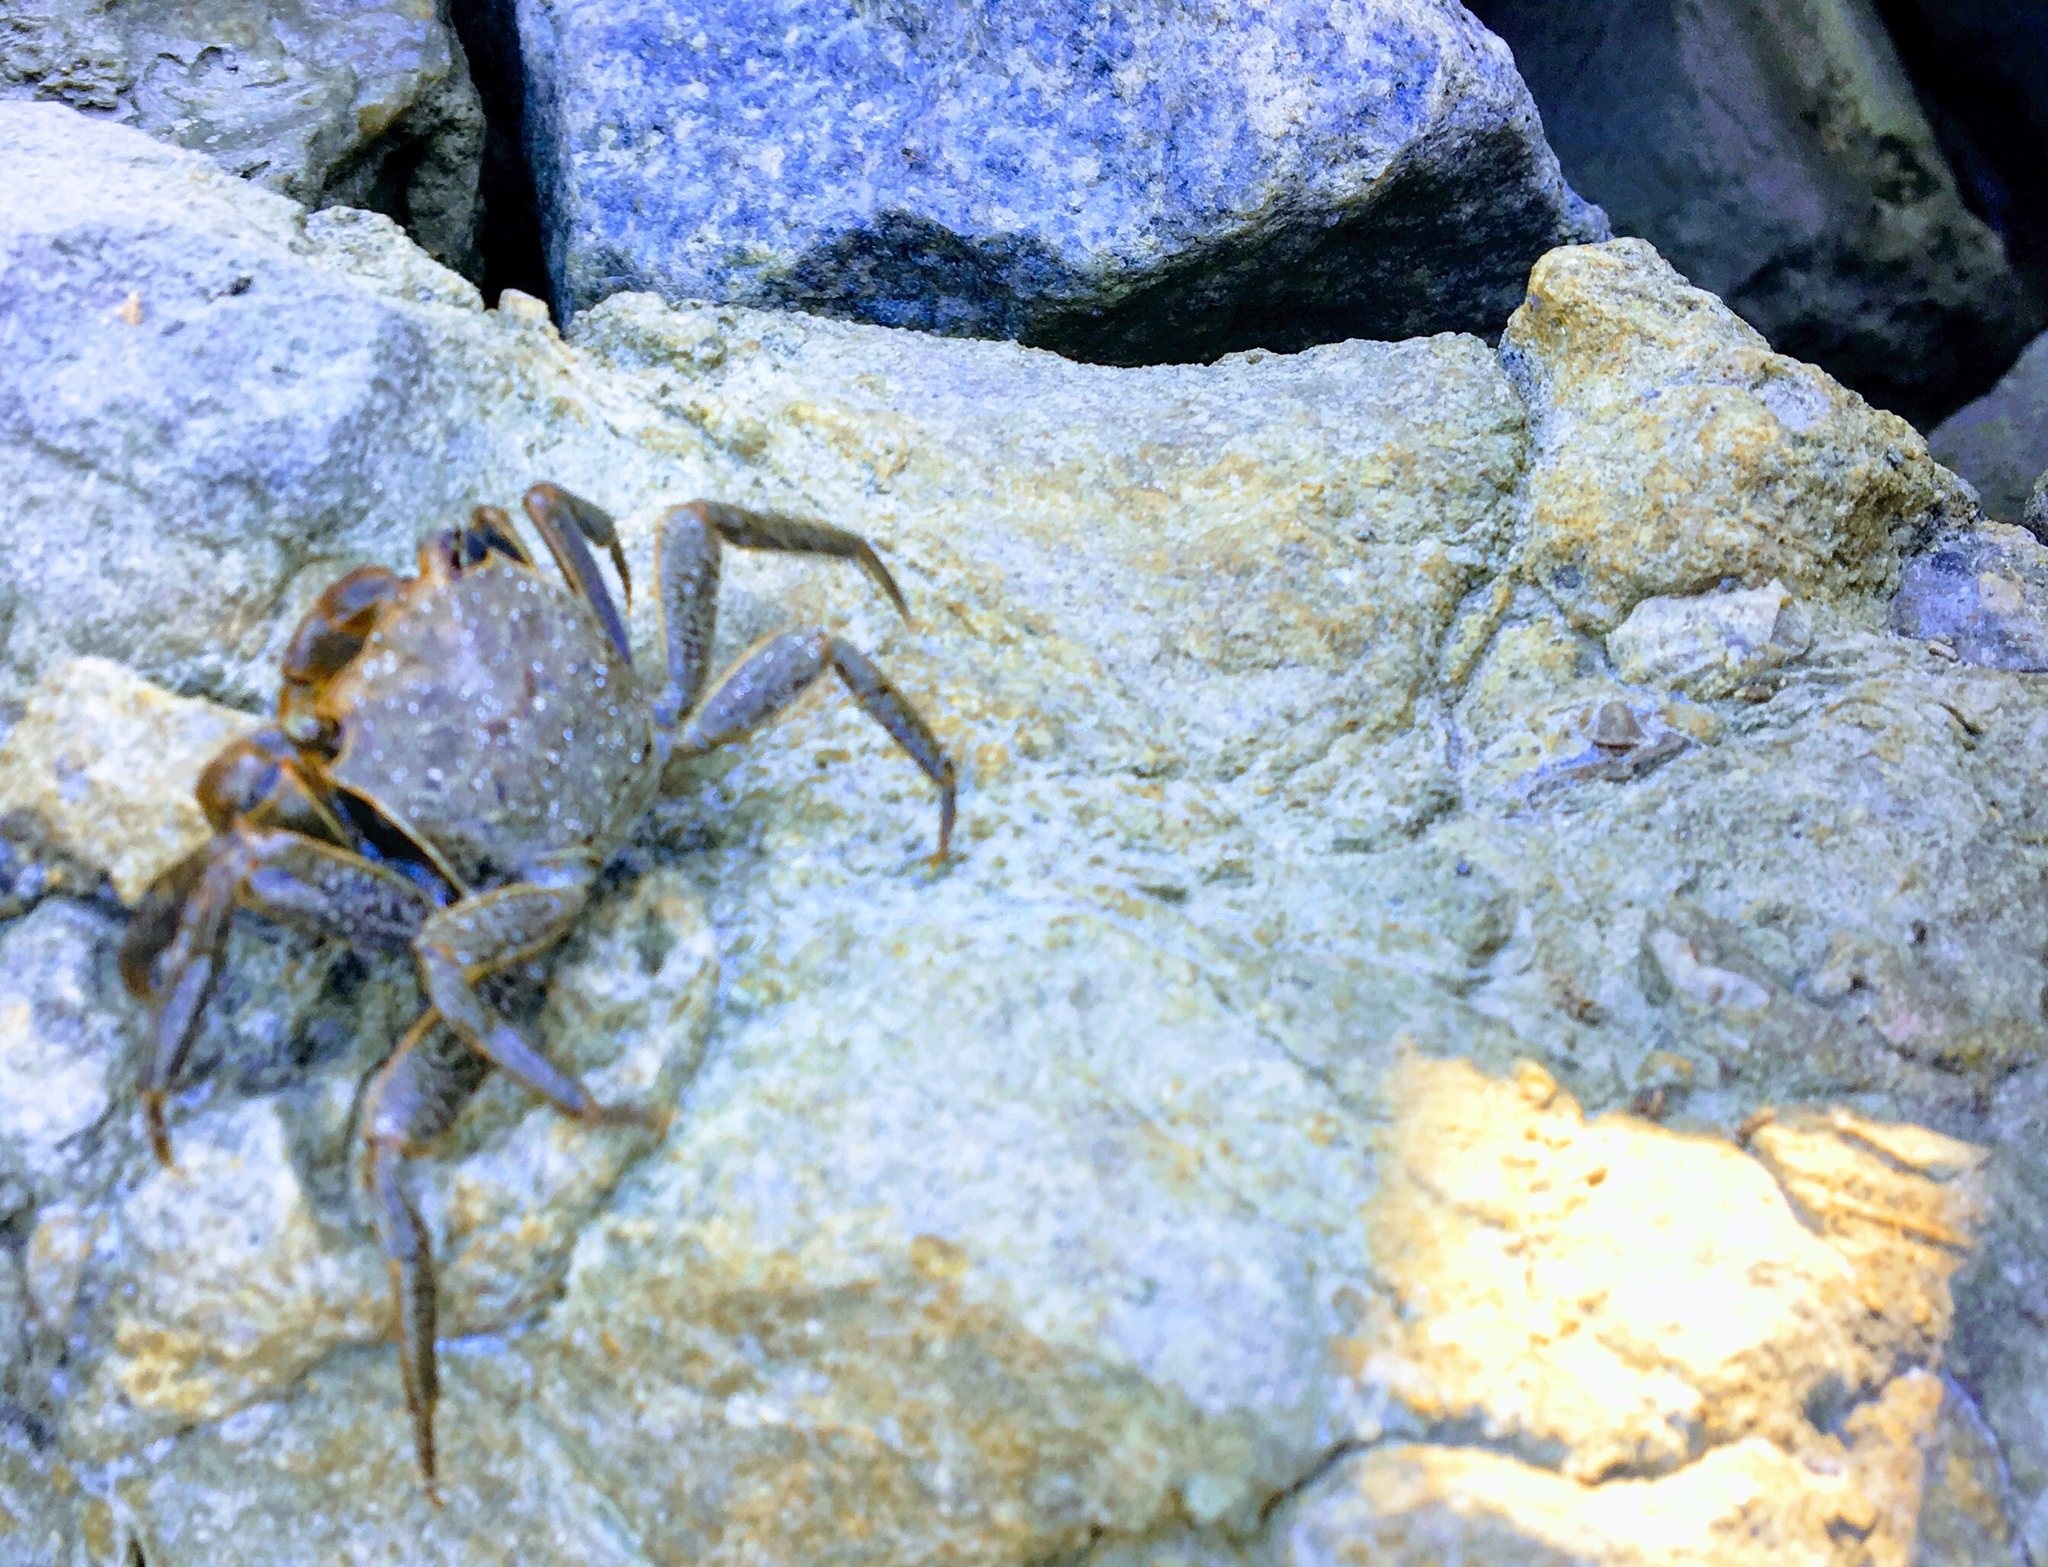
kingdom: Animalia
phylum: Arthropoda
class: Malacostraca
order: Decapoda
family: Sesarmidae
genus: Armases
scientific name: Armases cinereum
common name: Squareback marsh crab
